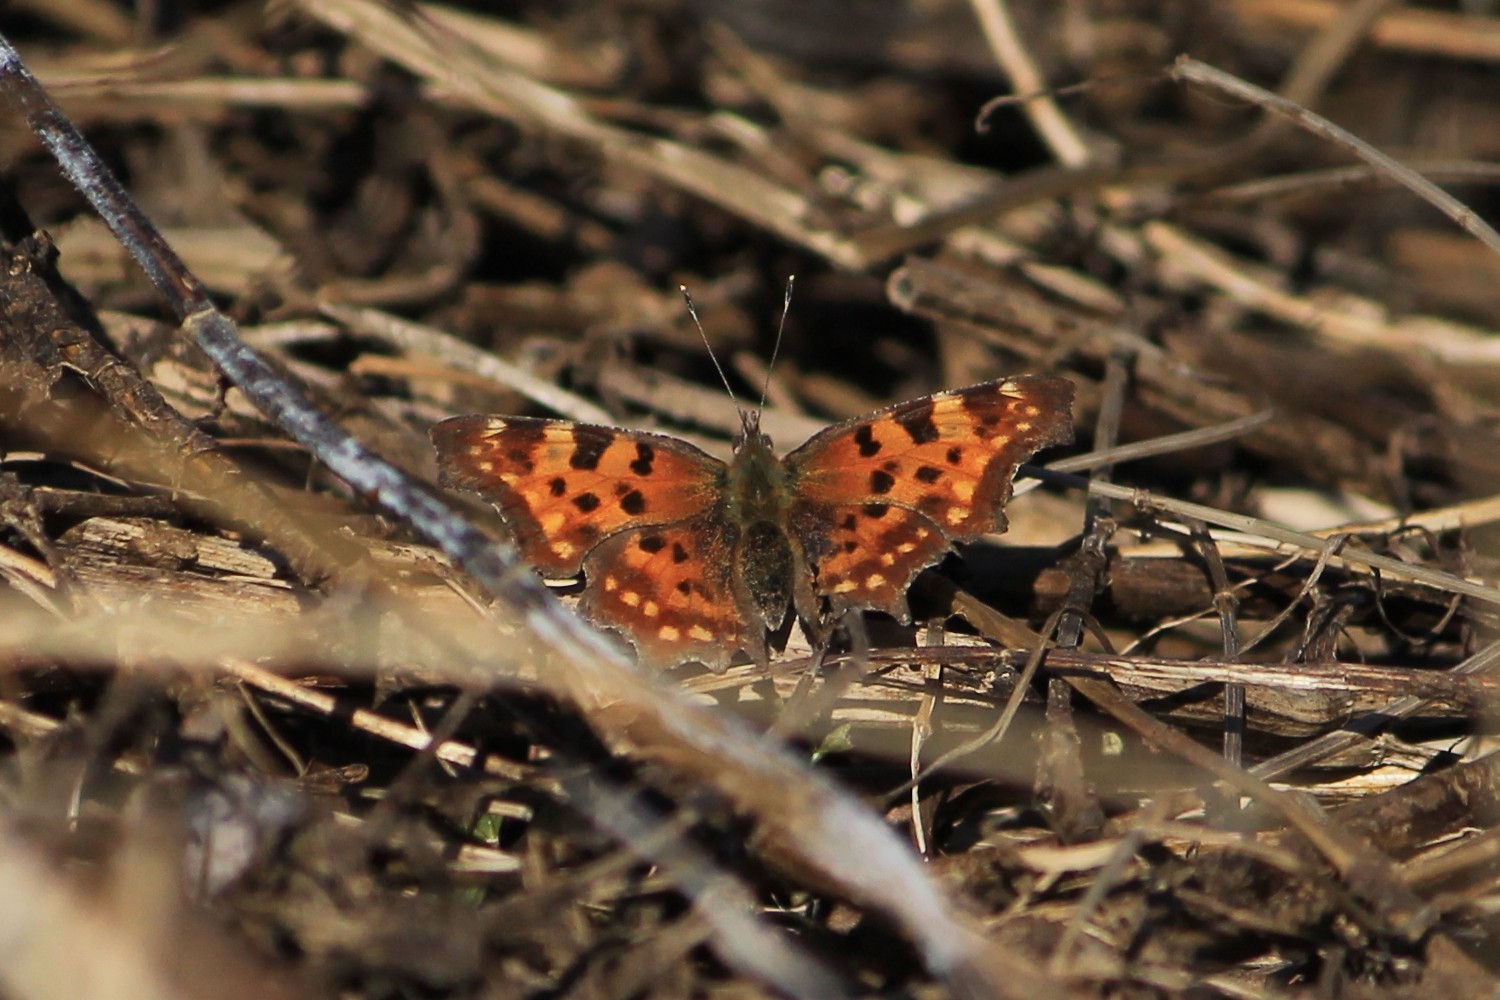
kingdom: Animalia
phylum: Arthropoda
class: Insecta
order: Lepidoptera
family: Nymphalidae
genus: Polygonia
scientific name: Polygonia c-album
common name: Comma
